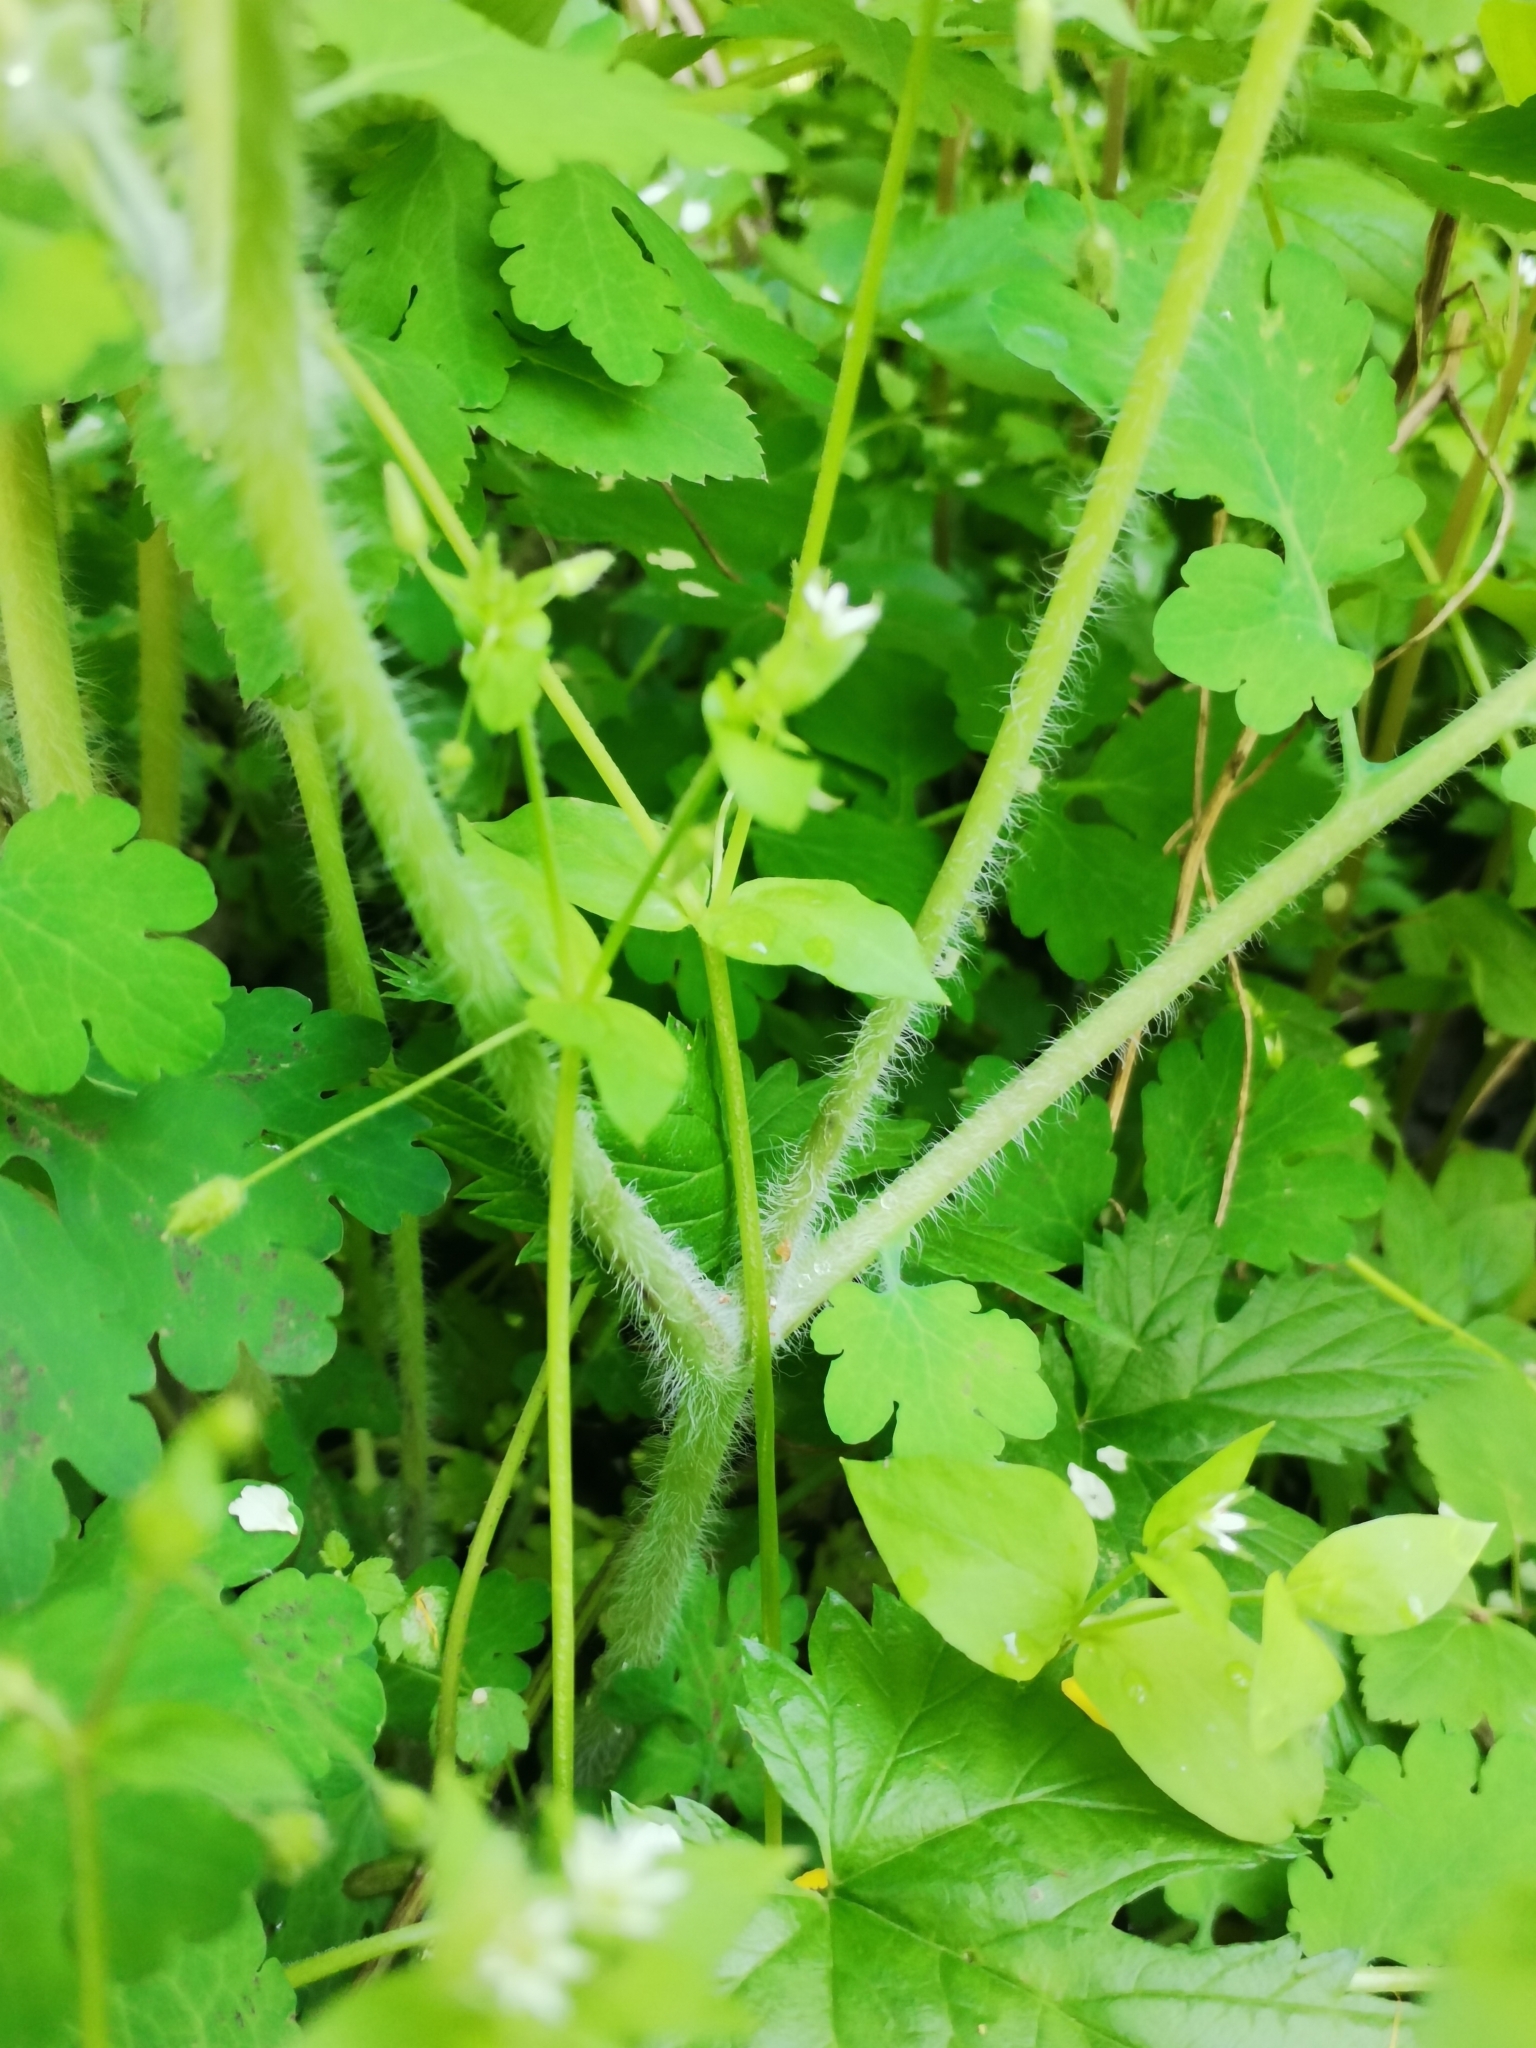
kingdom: Plantae
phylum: Tracheophyta
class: Magnoliopsida
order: Ranunculales
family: Papaveraceae
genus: Chelidonium
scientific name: Chelidonium majus
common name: Greater celandine
